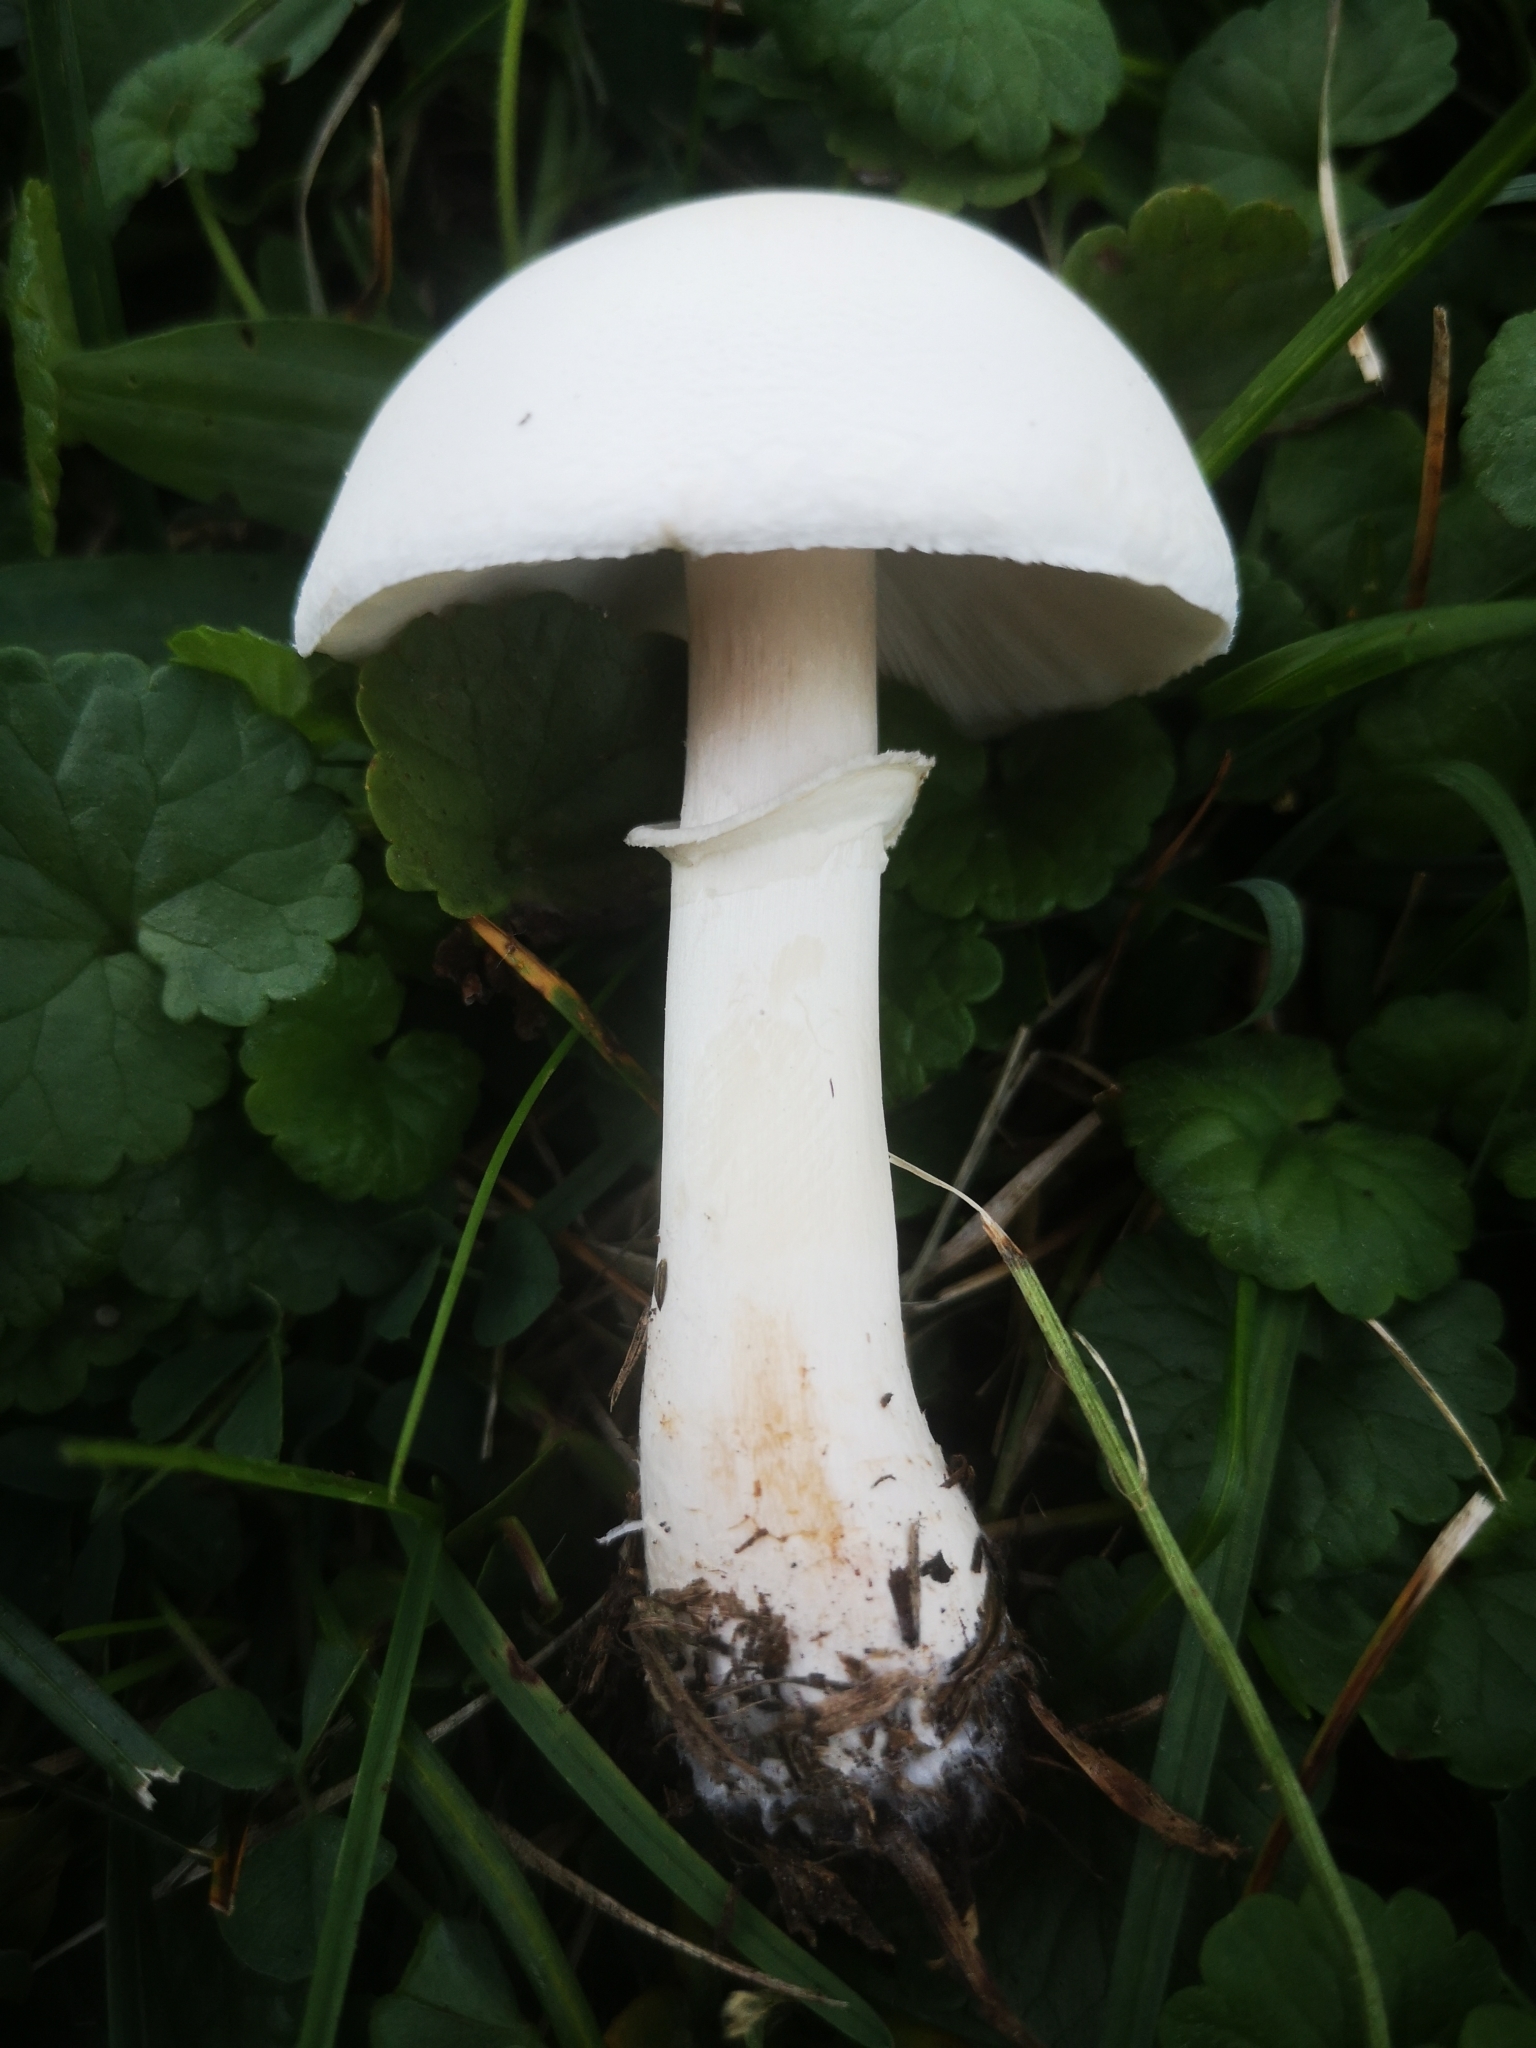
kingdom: Fungi
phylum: Basidiomycota
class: Agaricomycetes
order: Agaricales
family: Agaricaceae
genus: Leucoagaricus
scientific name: Leucoagaricus leucothites
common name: White dapperling
